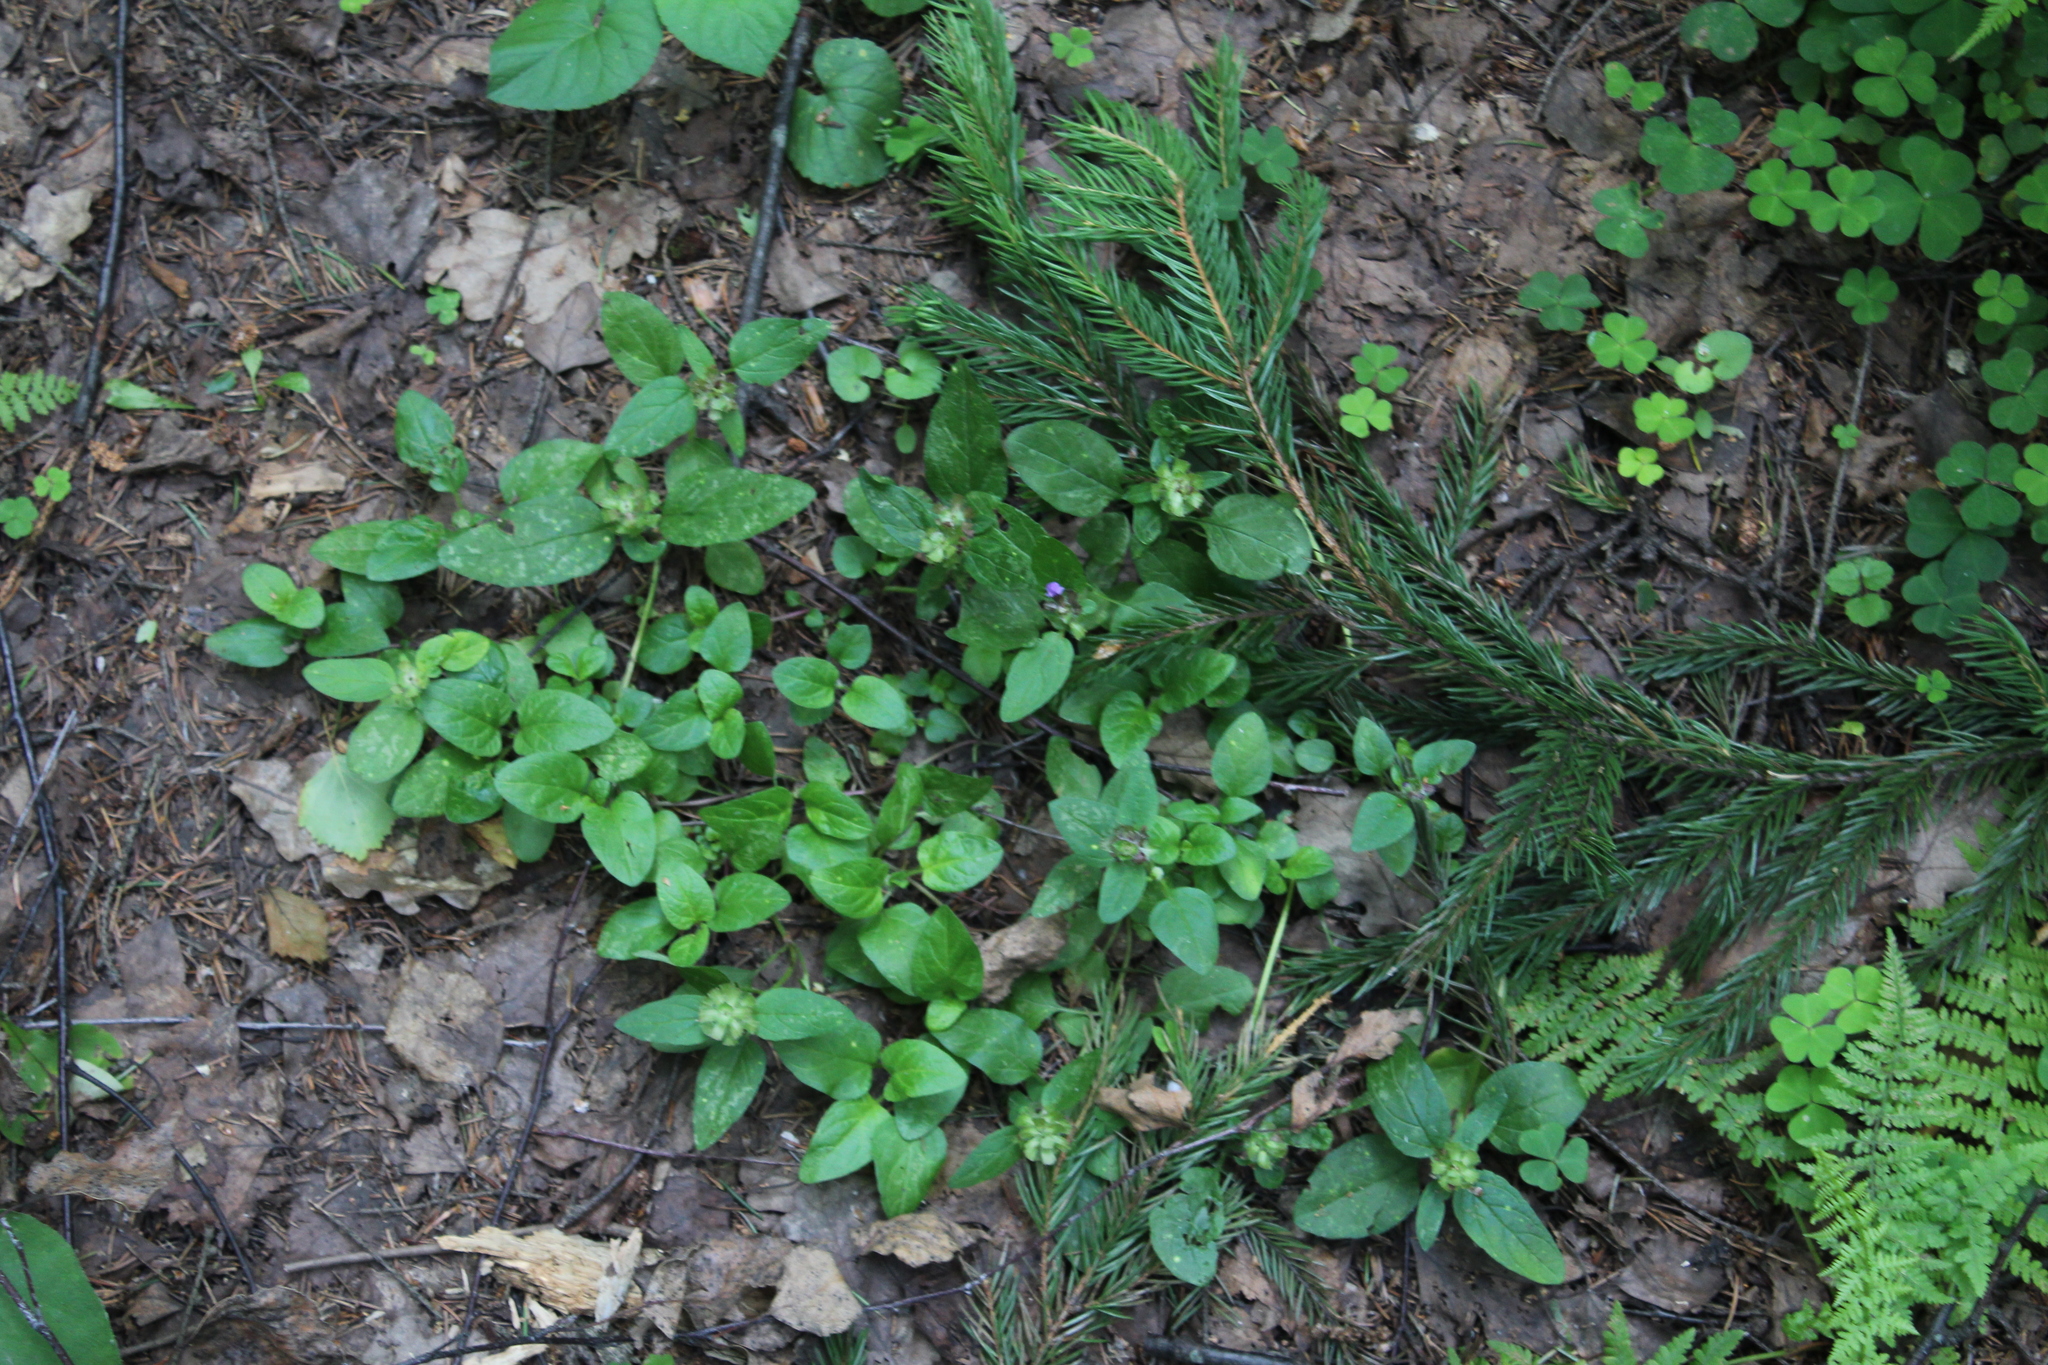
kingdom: Plantae
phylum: Tracheophyta
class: Magnoliopsida
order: Lamiales
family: Lamiaceae
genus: Prunella
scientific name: Prunella vulgaris
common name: Heal-all
